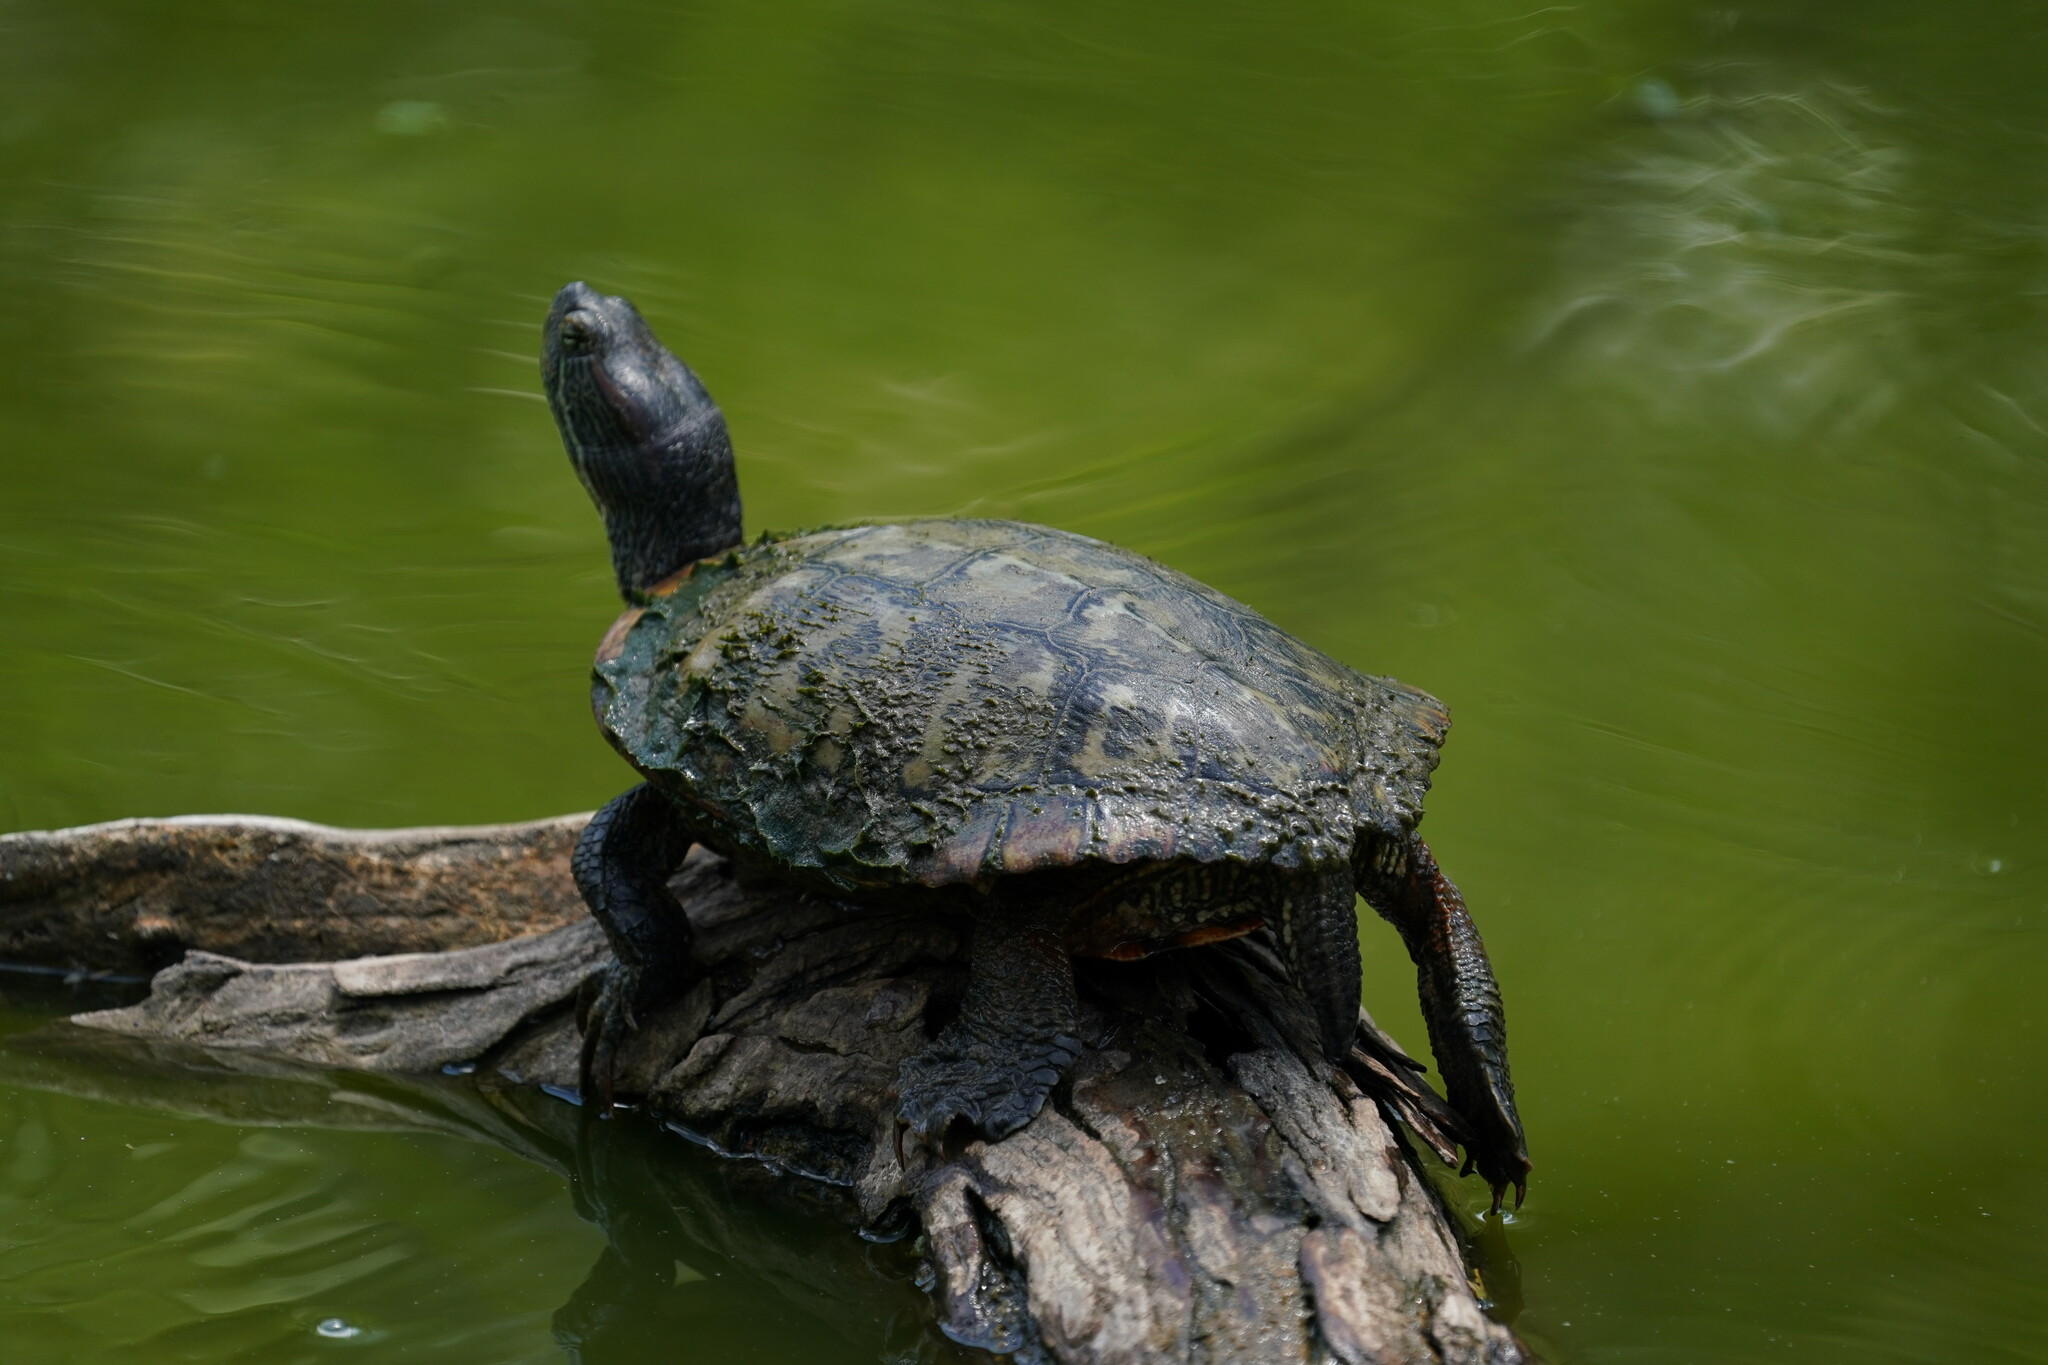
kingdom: Animalia
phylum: Chordata
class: Testudines
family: Emydidae
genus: Trachemys
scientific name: Trachemys scripta
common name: Slider
